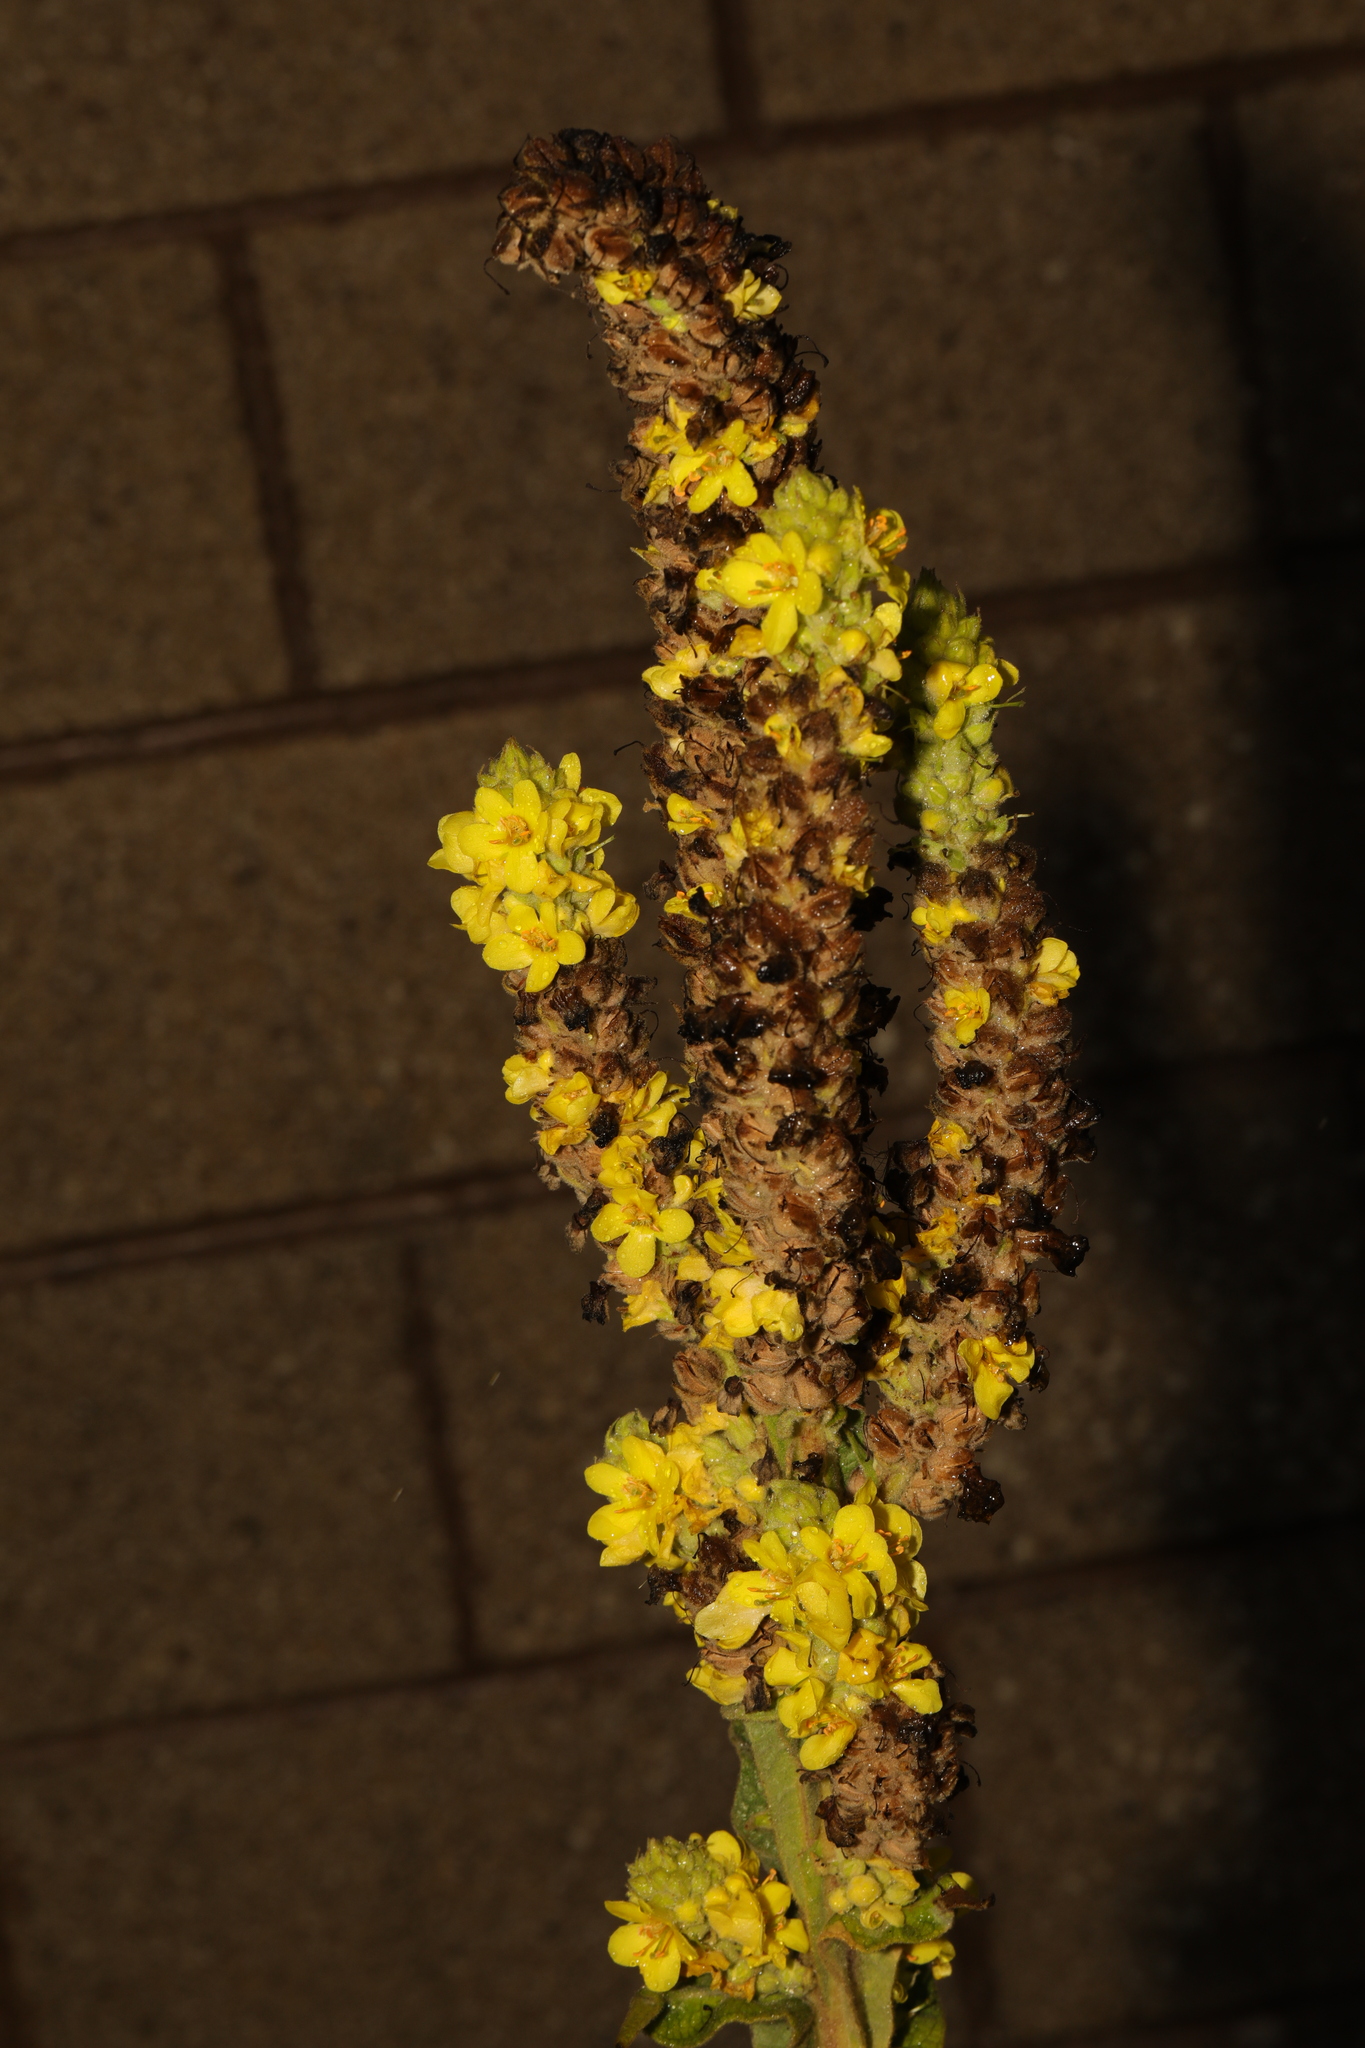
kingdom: Plantae
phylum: Tracheophyta
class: Magnoliopsida
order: Lamiales
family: Scrophulariaceae
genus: Verbascum
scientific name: Verbascum thapsus
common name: Common mullein
